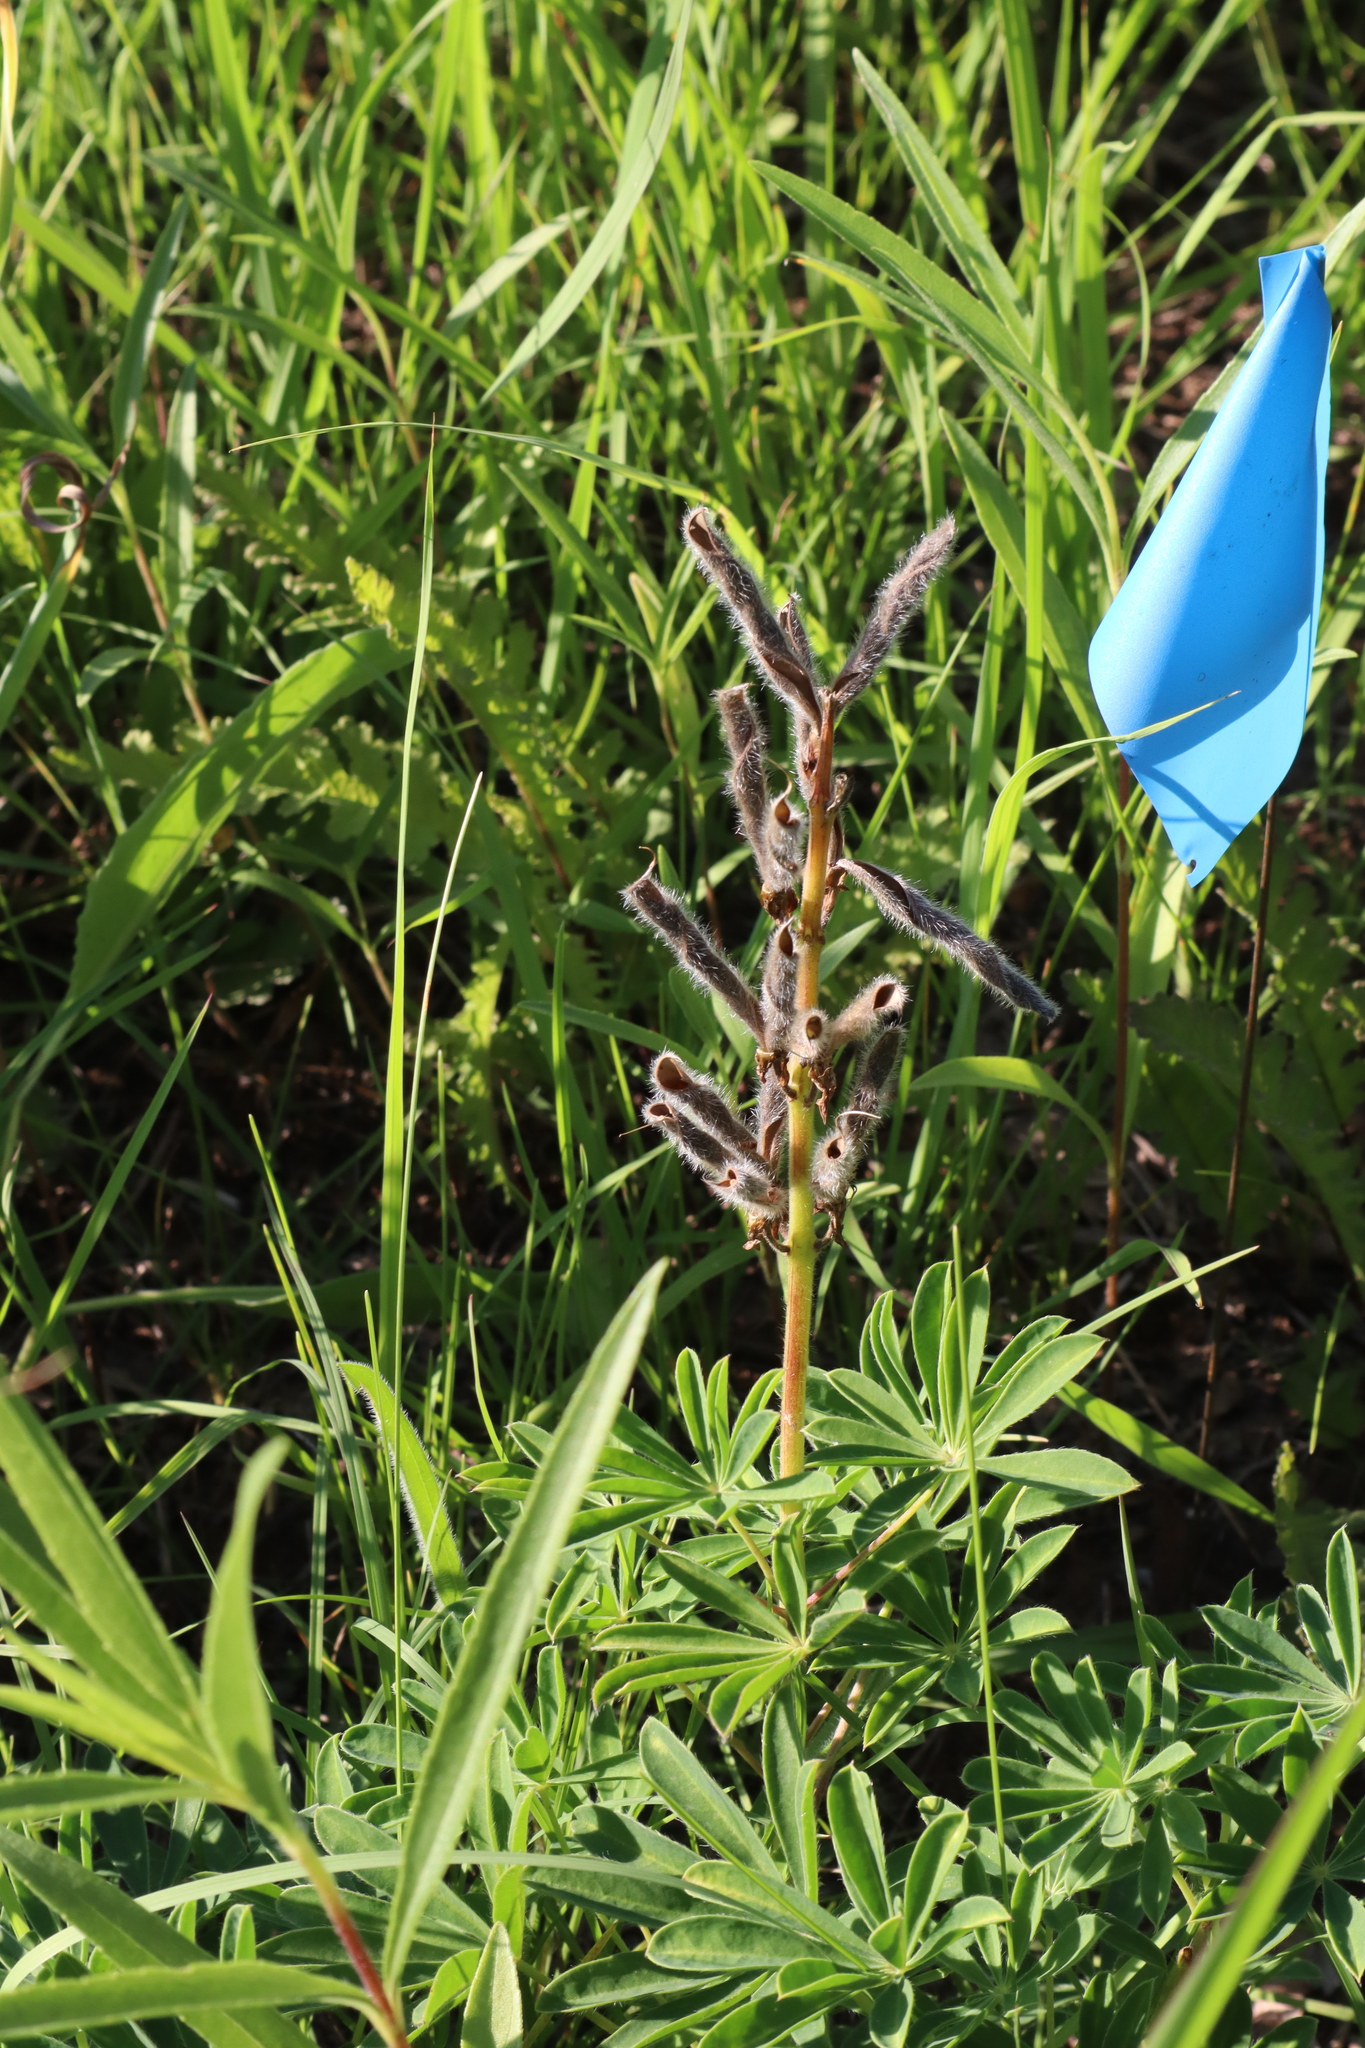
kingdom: Plantae
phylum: Tracheophyta
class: Magnoliopsida
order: Fabales
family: Fabaceae
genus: Lupinus
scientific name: Lupinus perennis
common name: Sundial lupine
